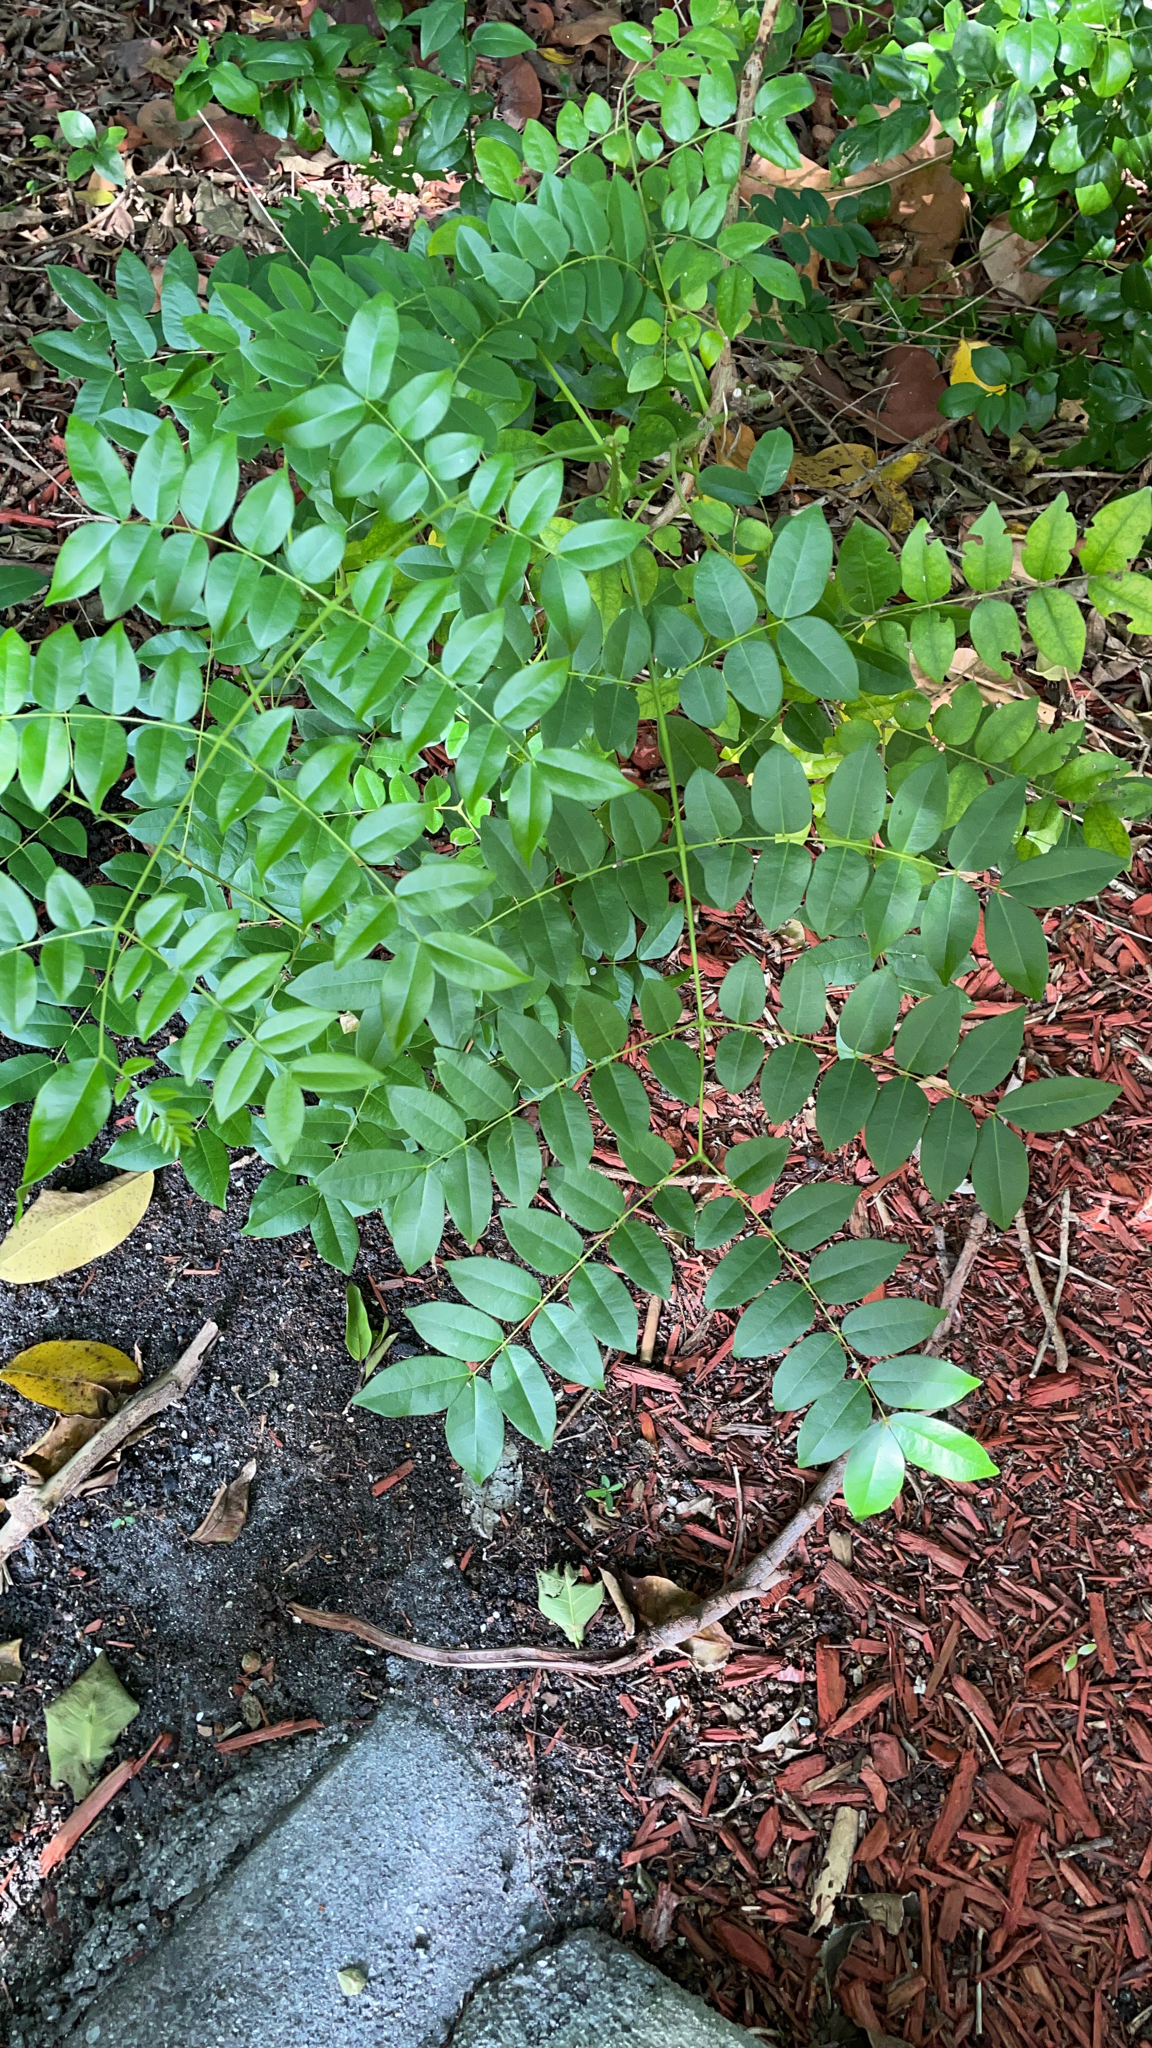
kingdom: Plantae
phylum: Tracheophyta
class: Magnoliopsida
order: Fabales
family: Fabaceae
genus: Guilandina
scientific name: Guilandina bonduc
